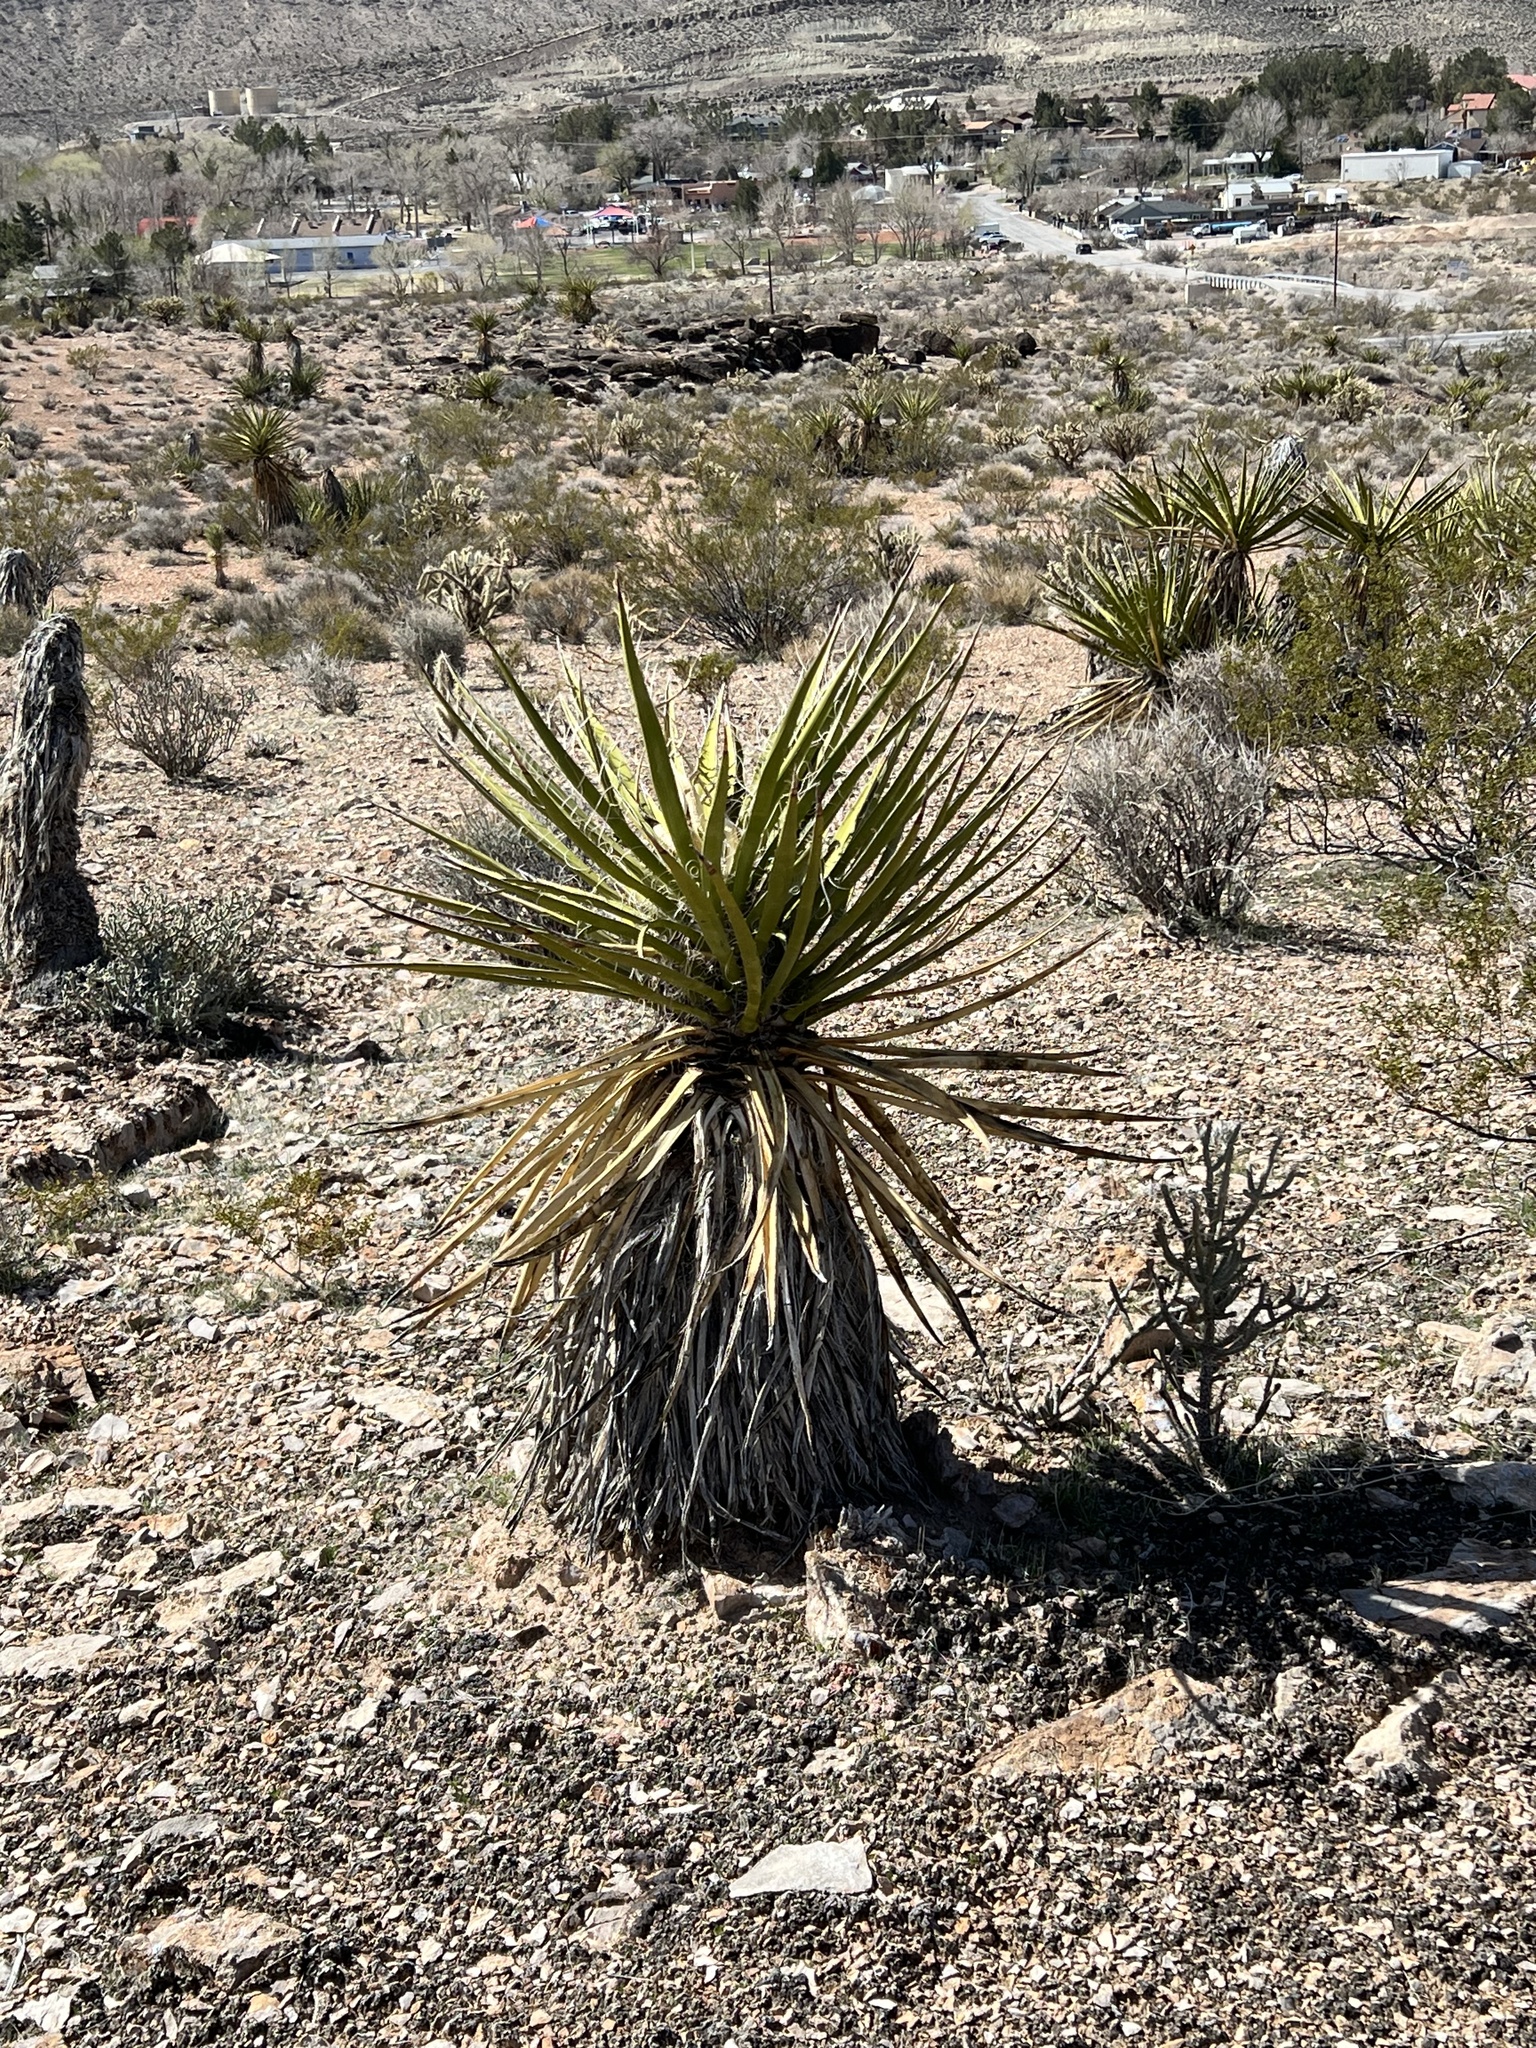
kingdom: Plantae
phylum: Tracheophyta
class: Liliopsida
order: Asparagales
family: Asparagaceae
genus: Yucca
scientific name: Yucca schidigera
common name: Mojave yucca
